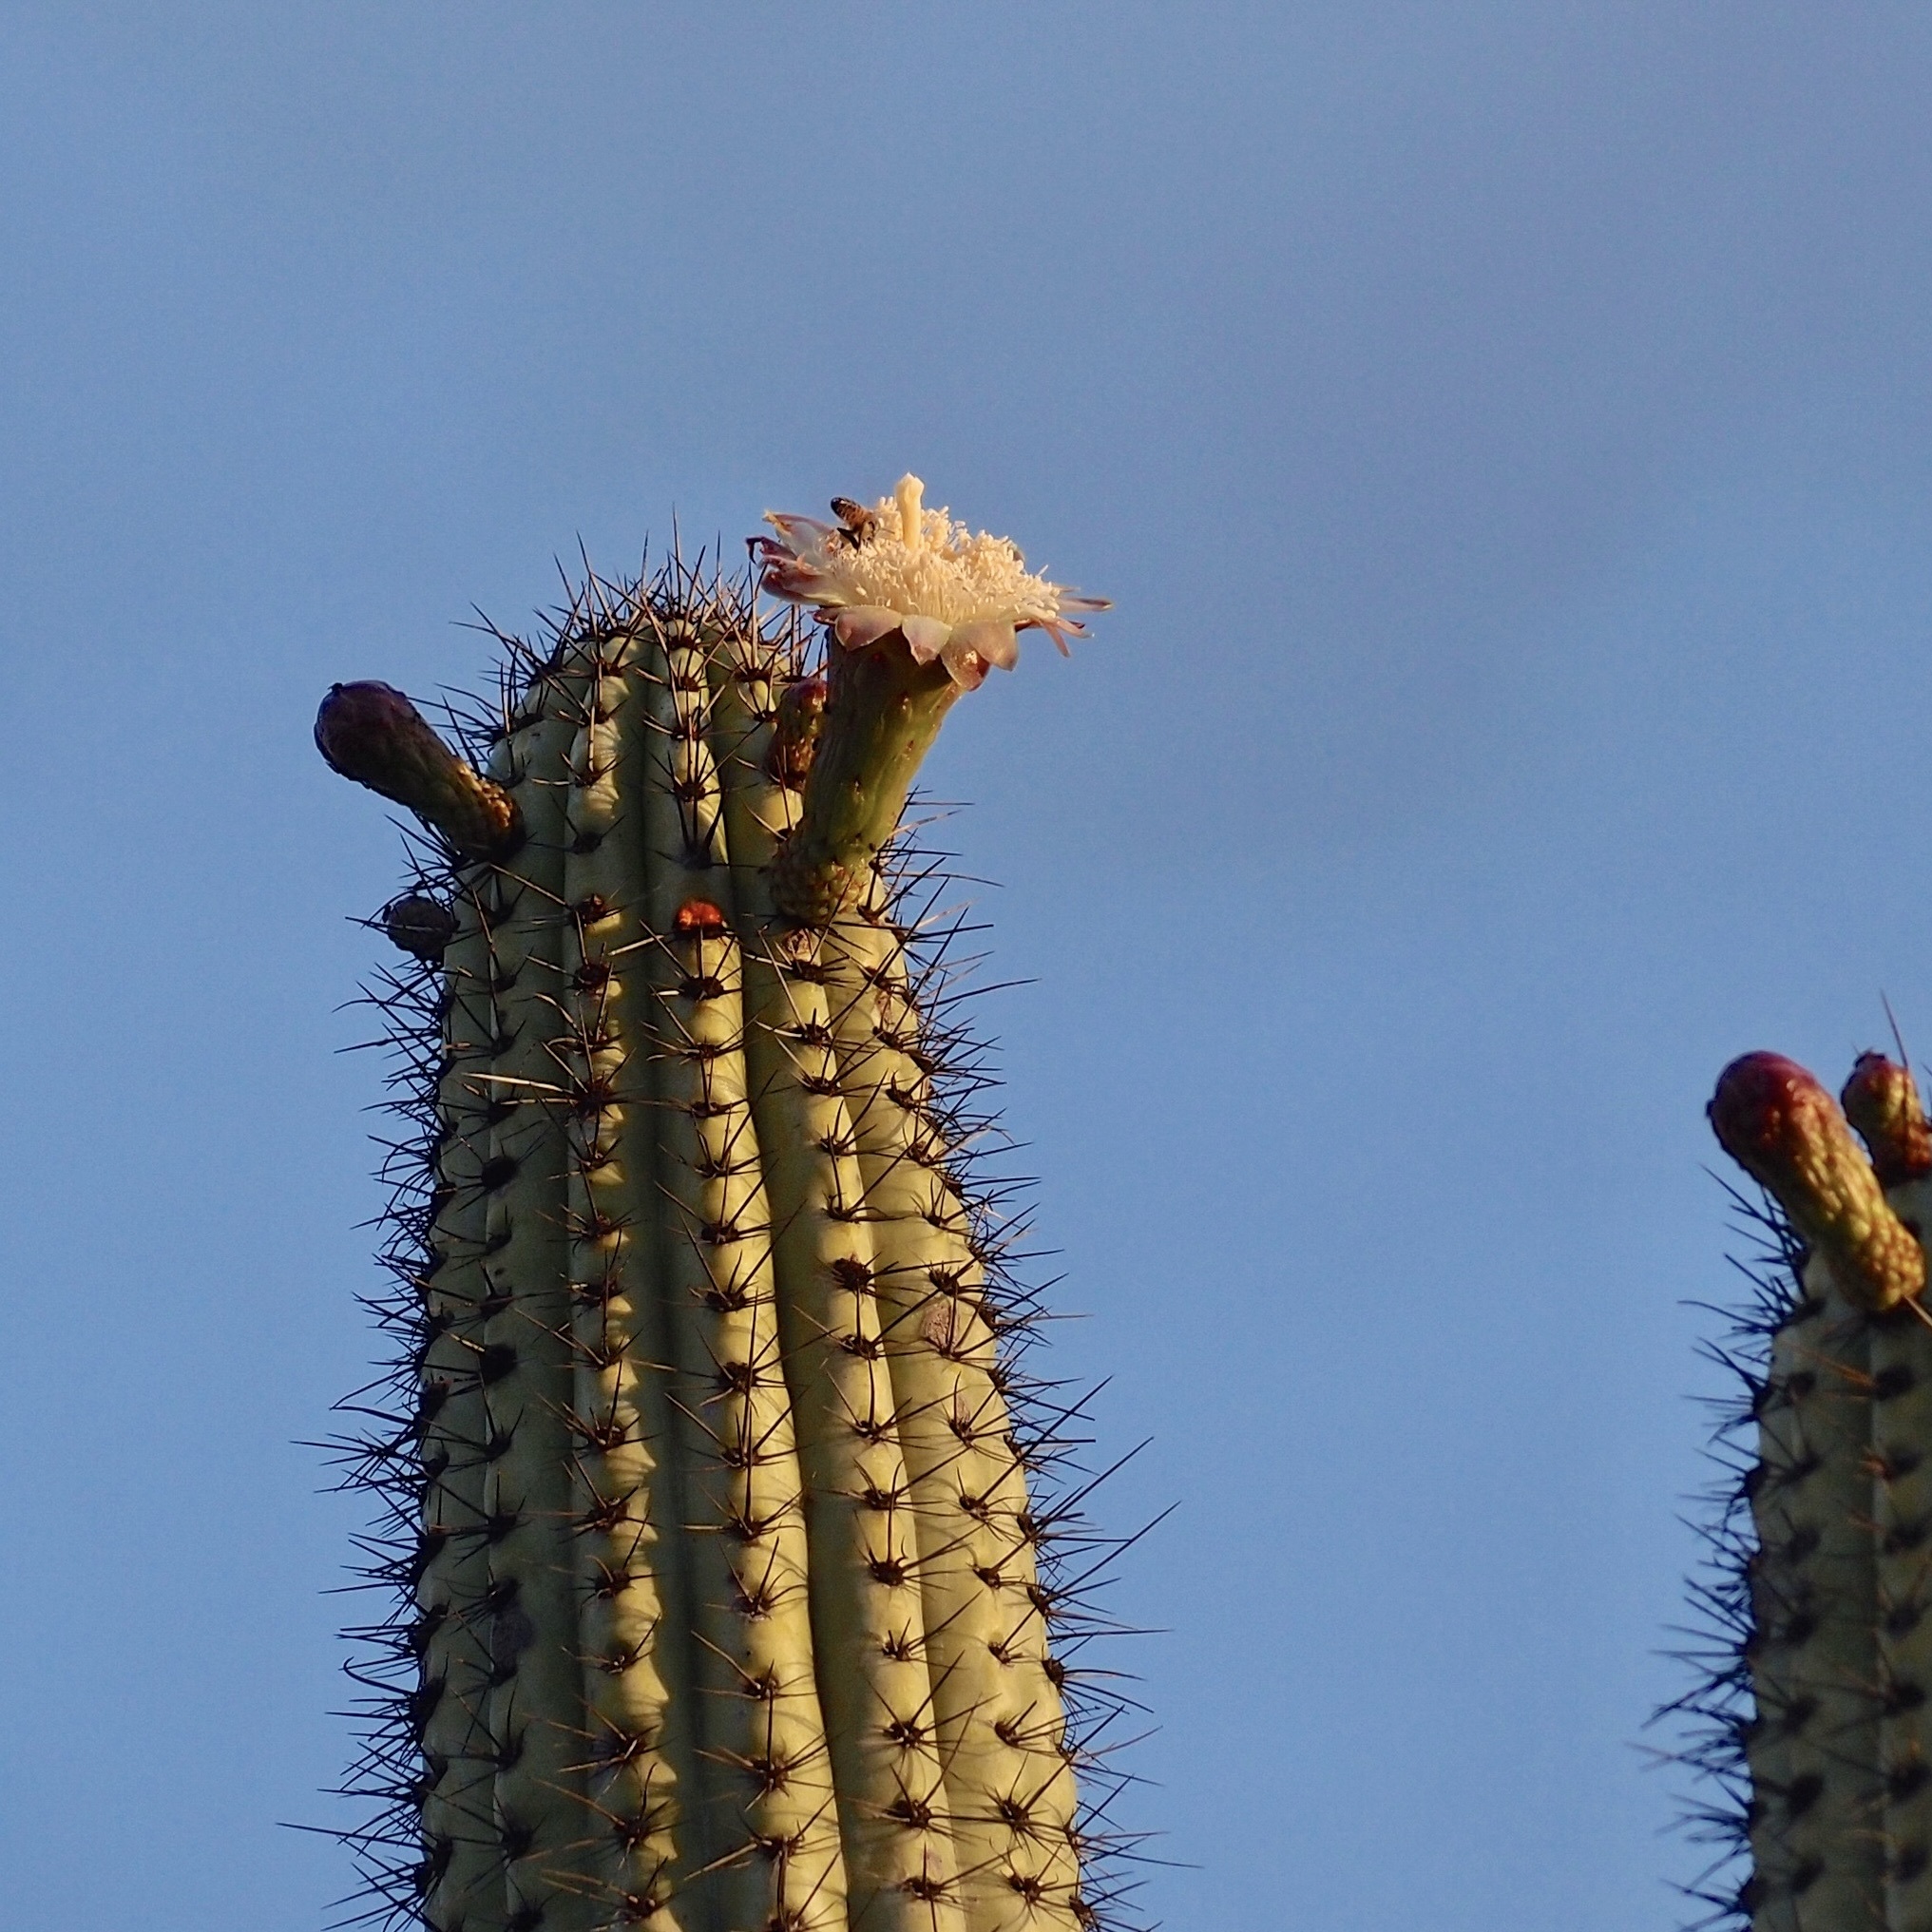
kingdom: Plantae
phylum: Tracheophyta
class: Magnoliopsida
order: Caryophyllales
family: Cactaceae
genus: Stenocereus
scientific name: Stenocereus thurberi
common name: Organ pipe cactus
